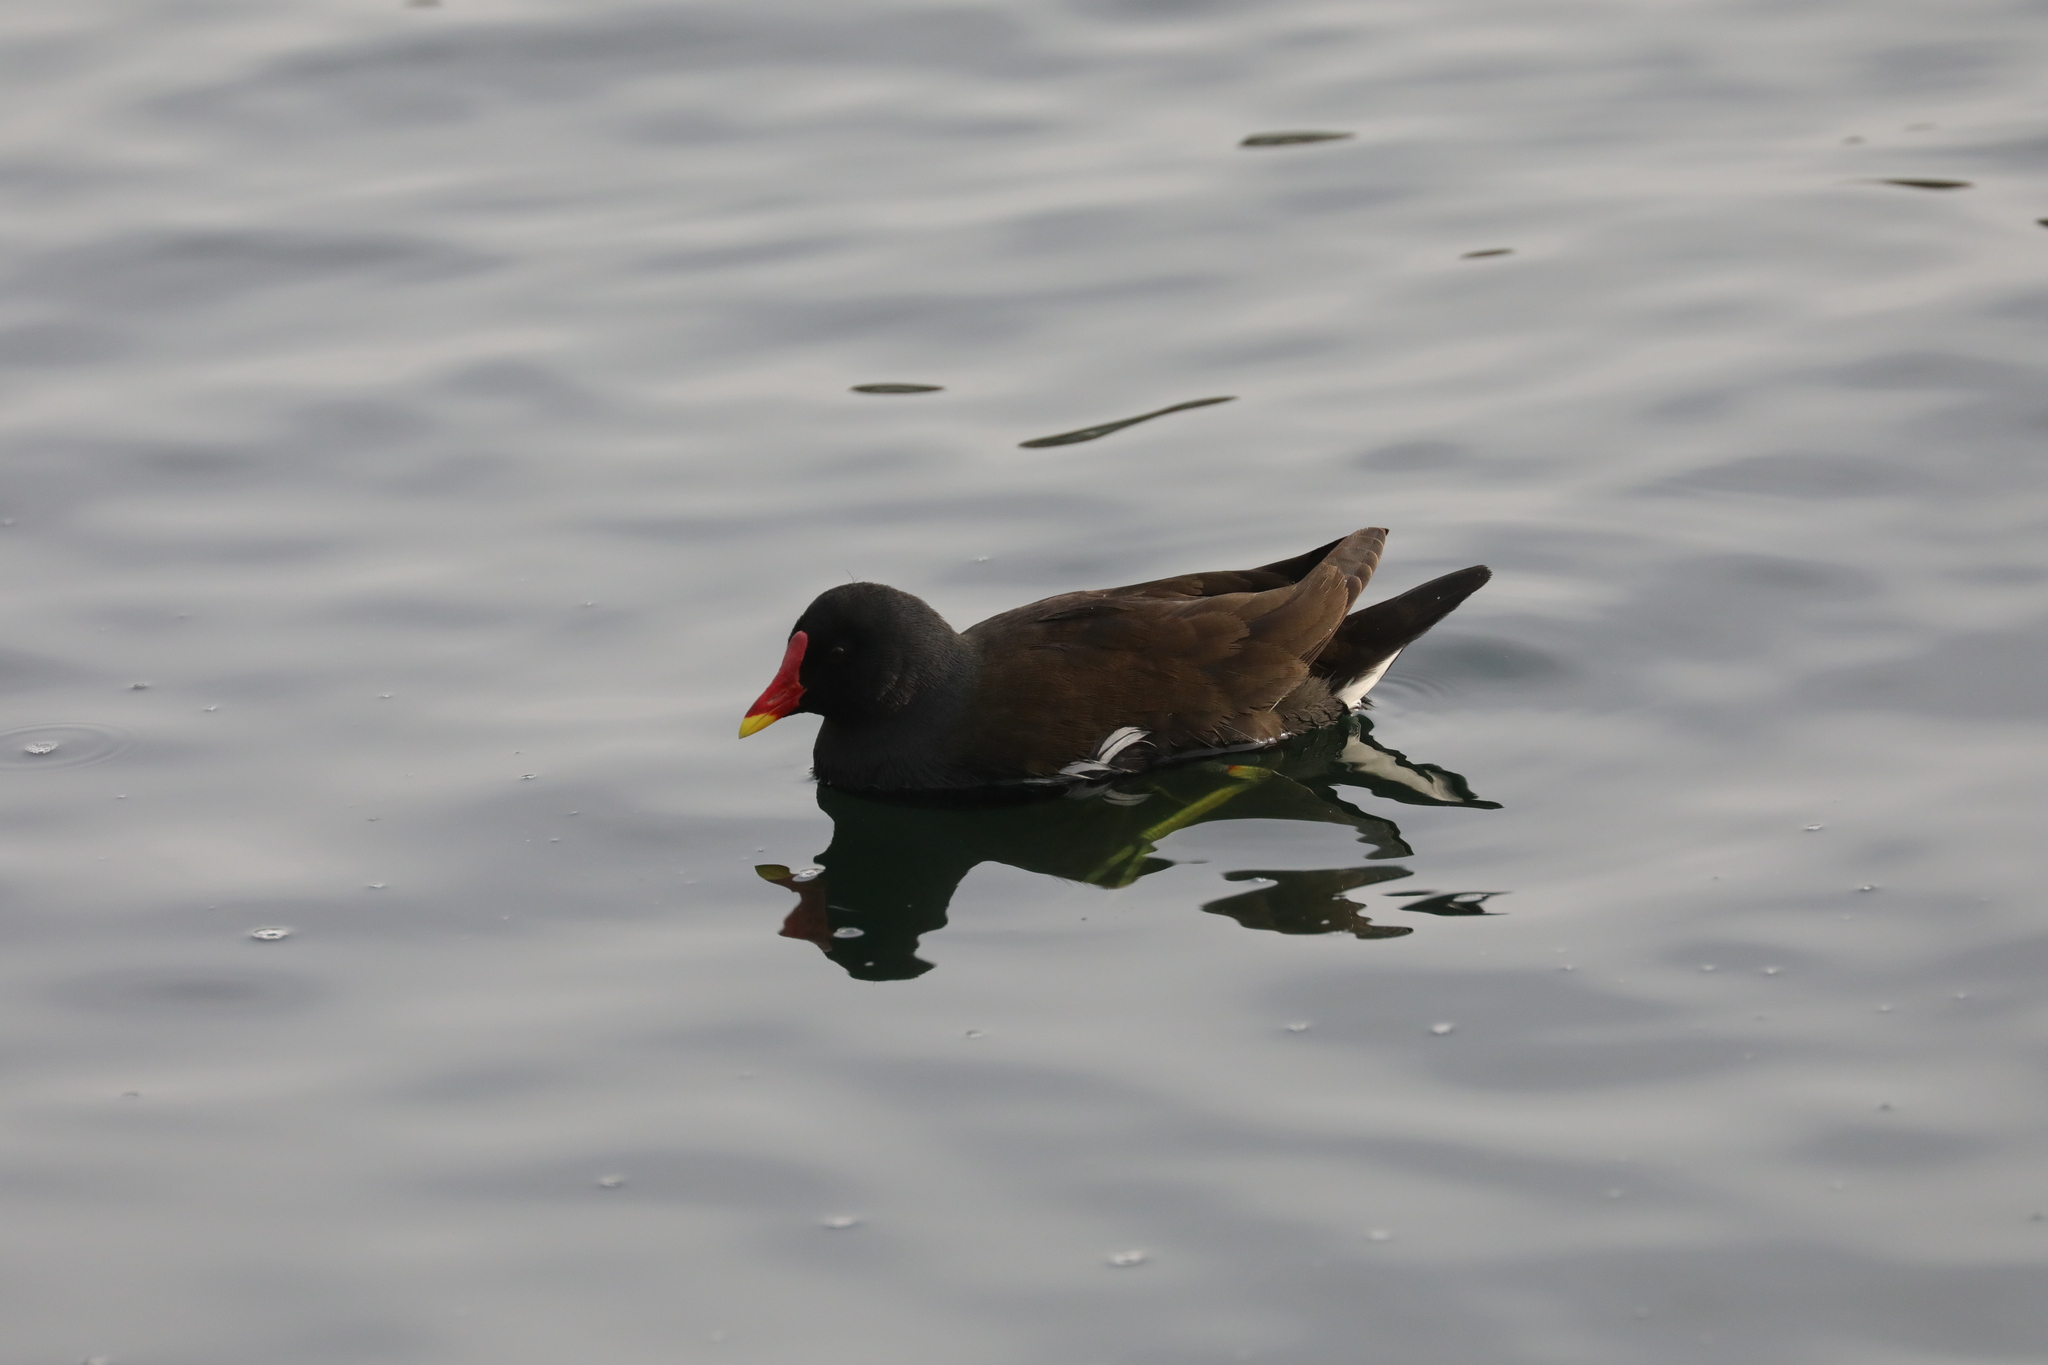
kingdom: Animalia
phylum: Chordata
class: Aves
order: Gruiformes
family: Rallidae
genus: Gallinula
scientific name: Gallinula chloropus
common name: Common moorhen
